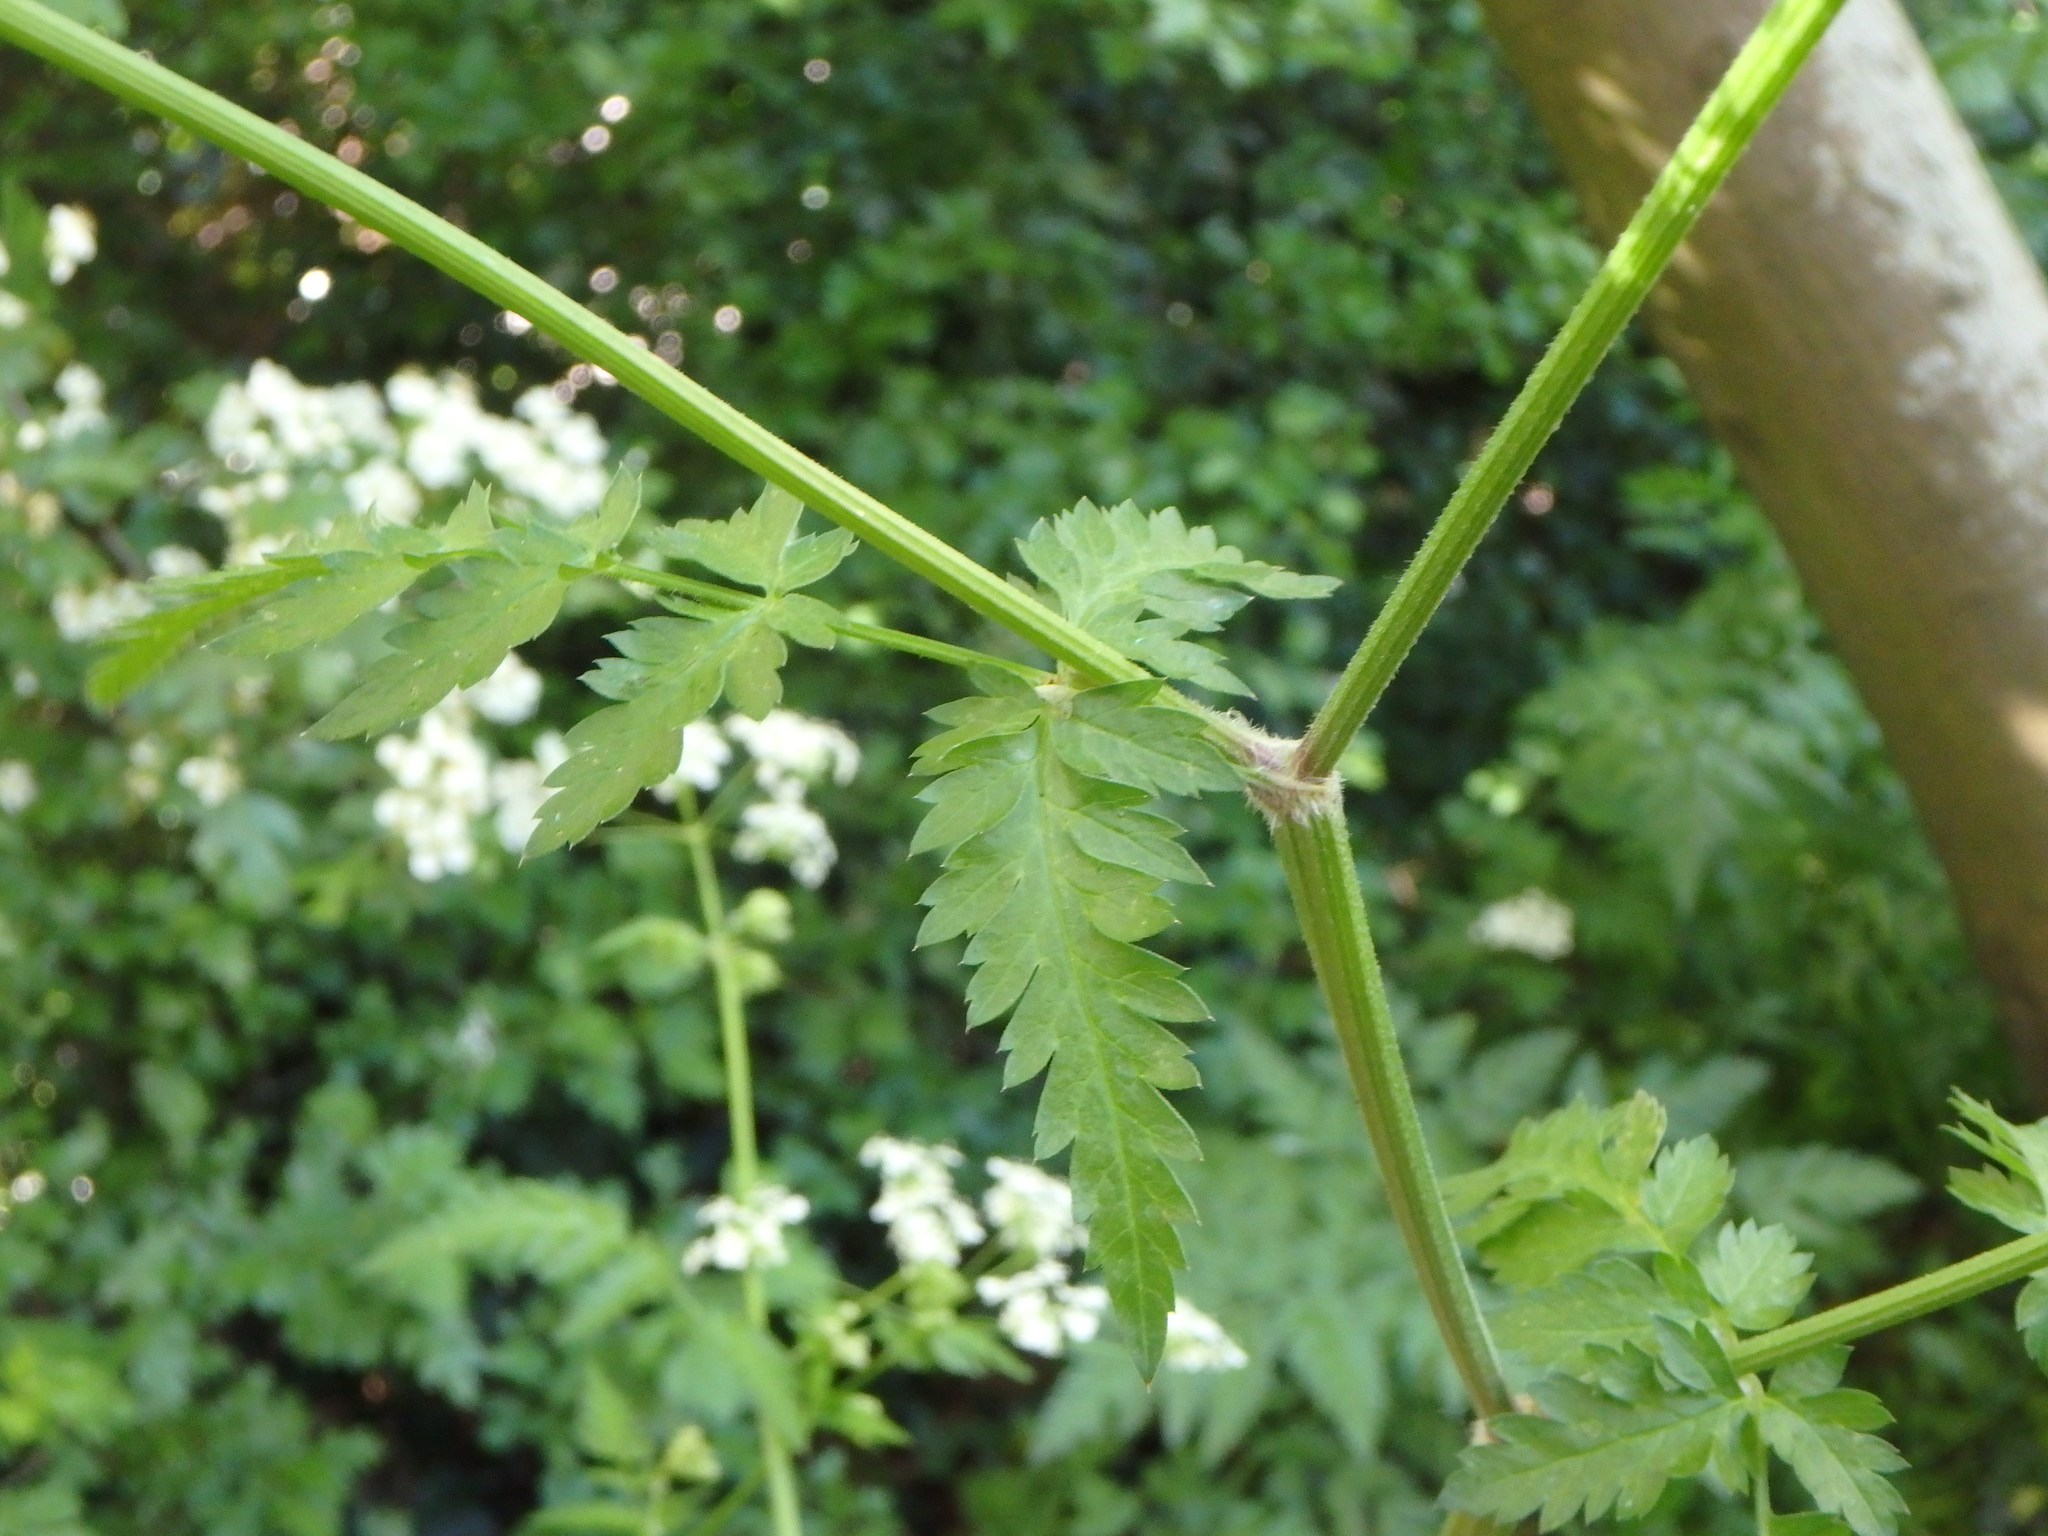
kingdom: Plantae
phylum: Tracheophyta
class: Magnoliopsida
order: Apiales
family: Apiaceae
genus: Anthriscus
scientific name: Anthriscus sylvestris
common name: Cow parsley
